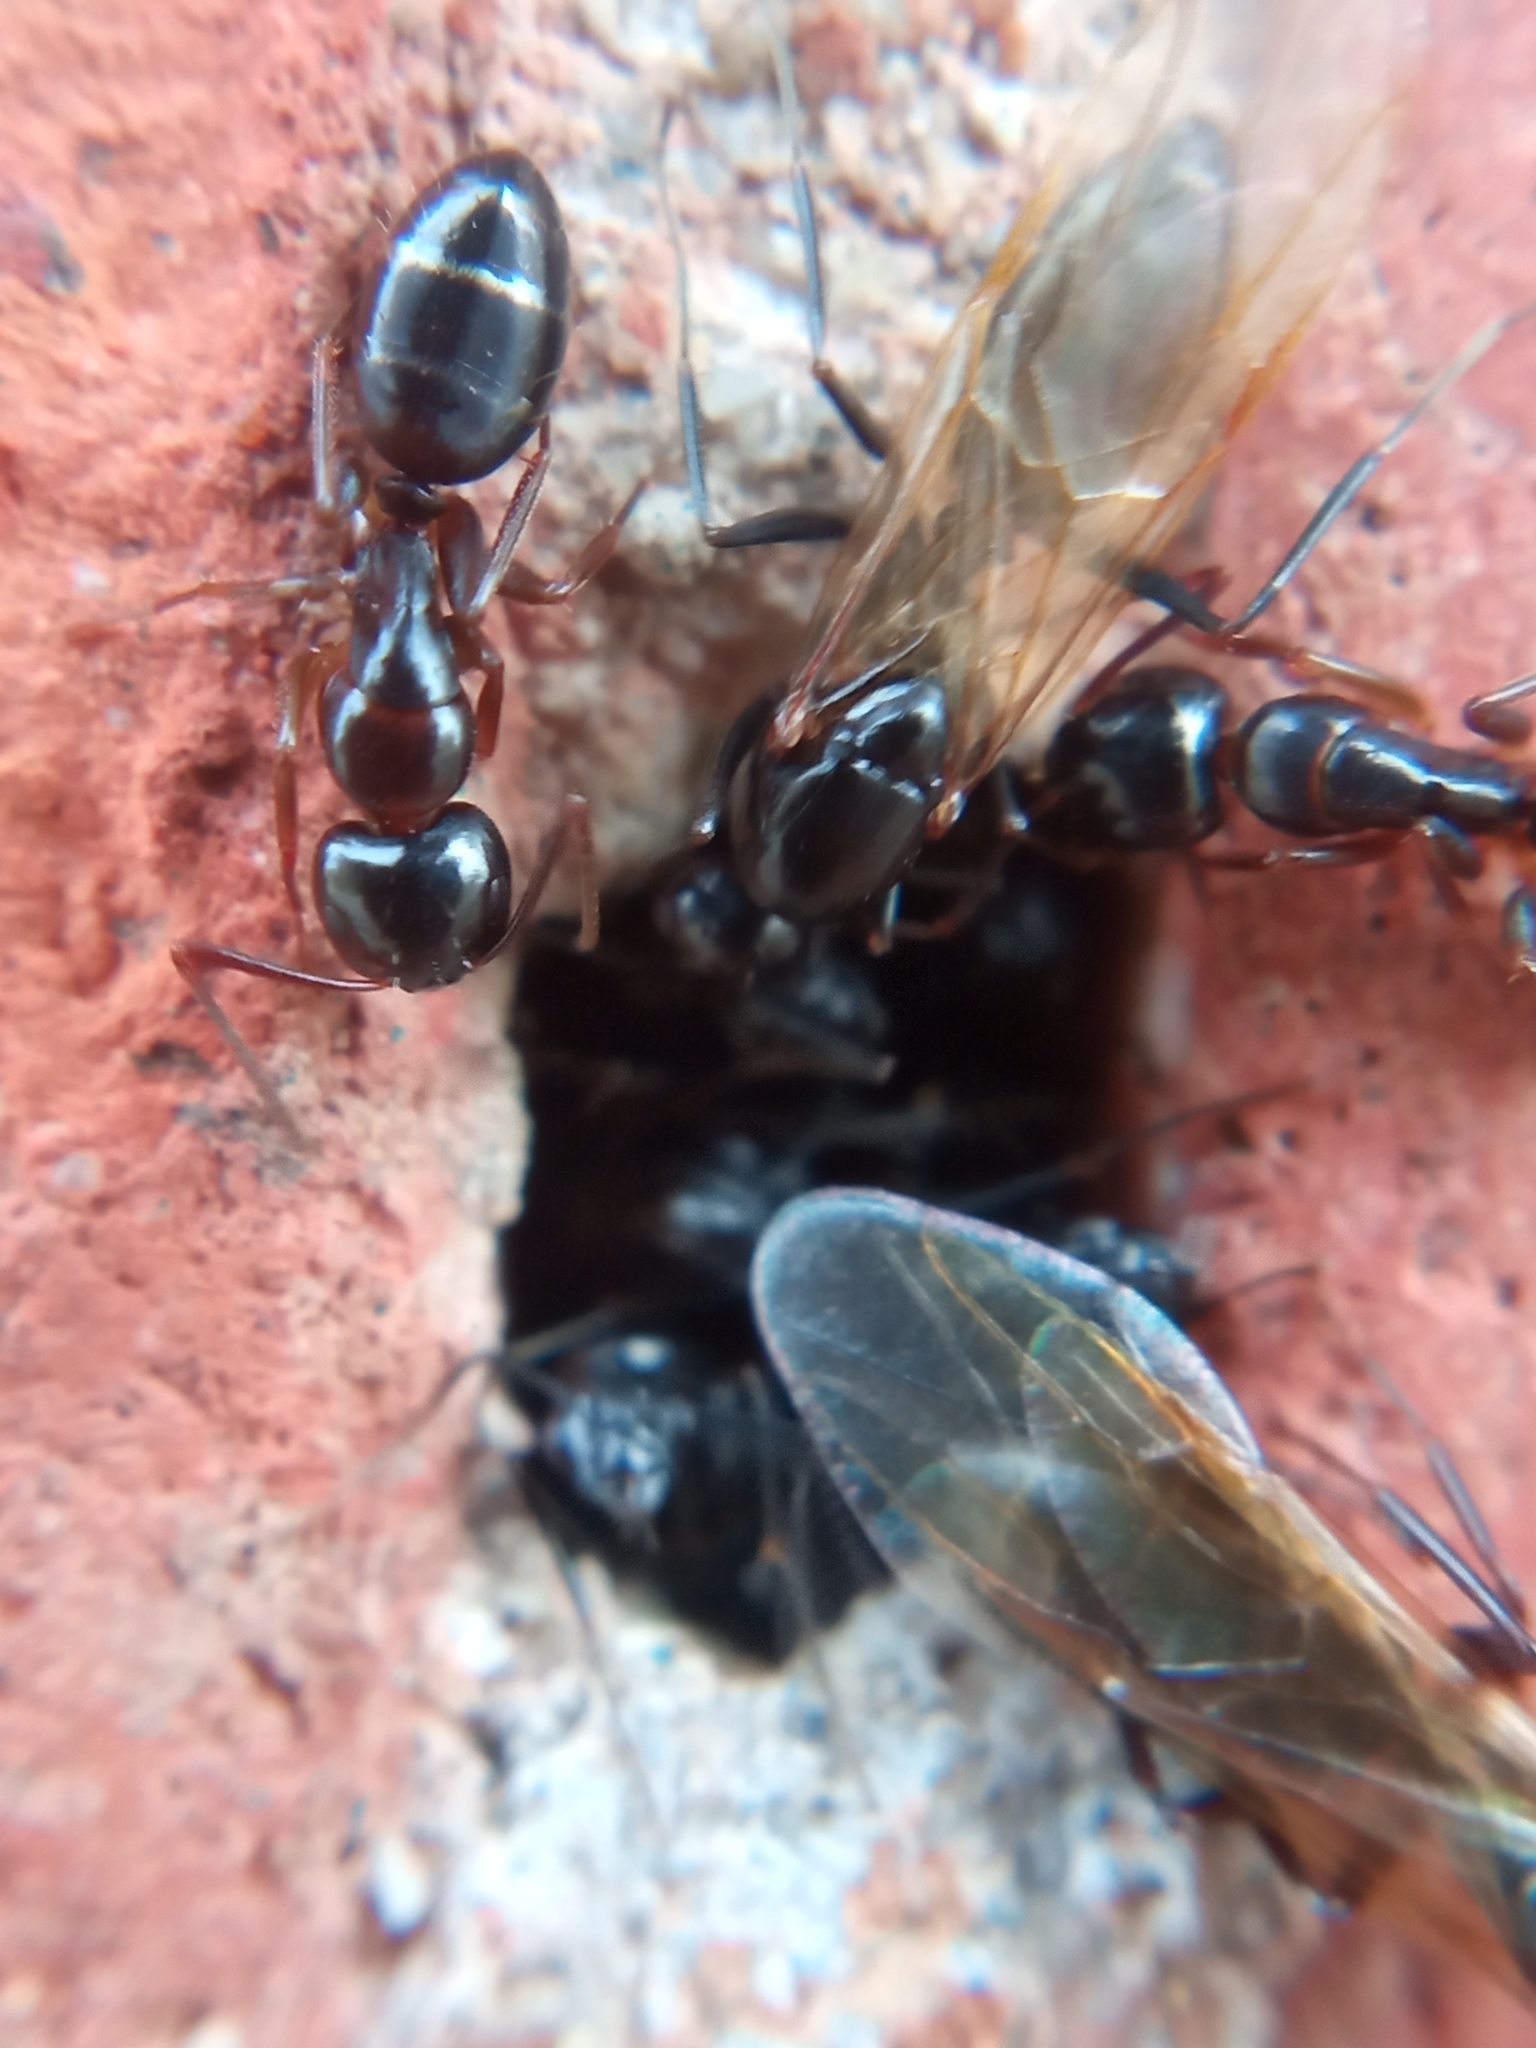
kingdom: Animalia
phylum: Arthropoda
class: Insecta
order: Hymenoptera
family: Formicidae
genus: Camponotus
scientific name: Camponotus fallax
